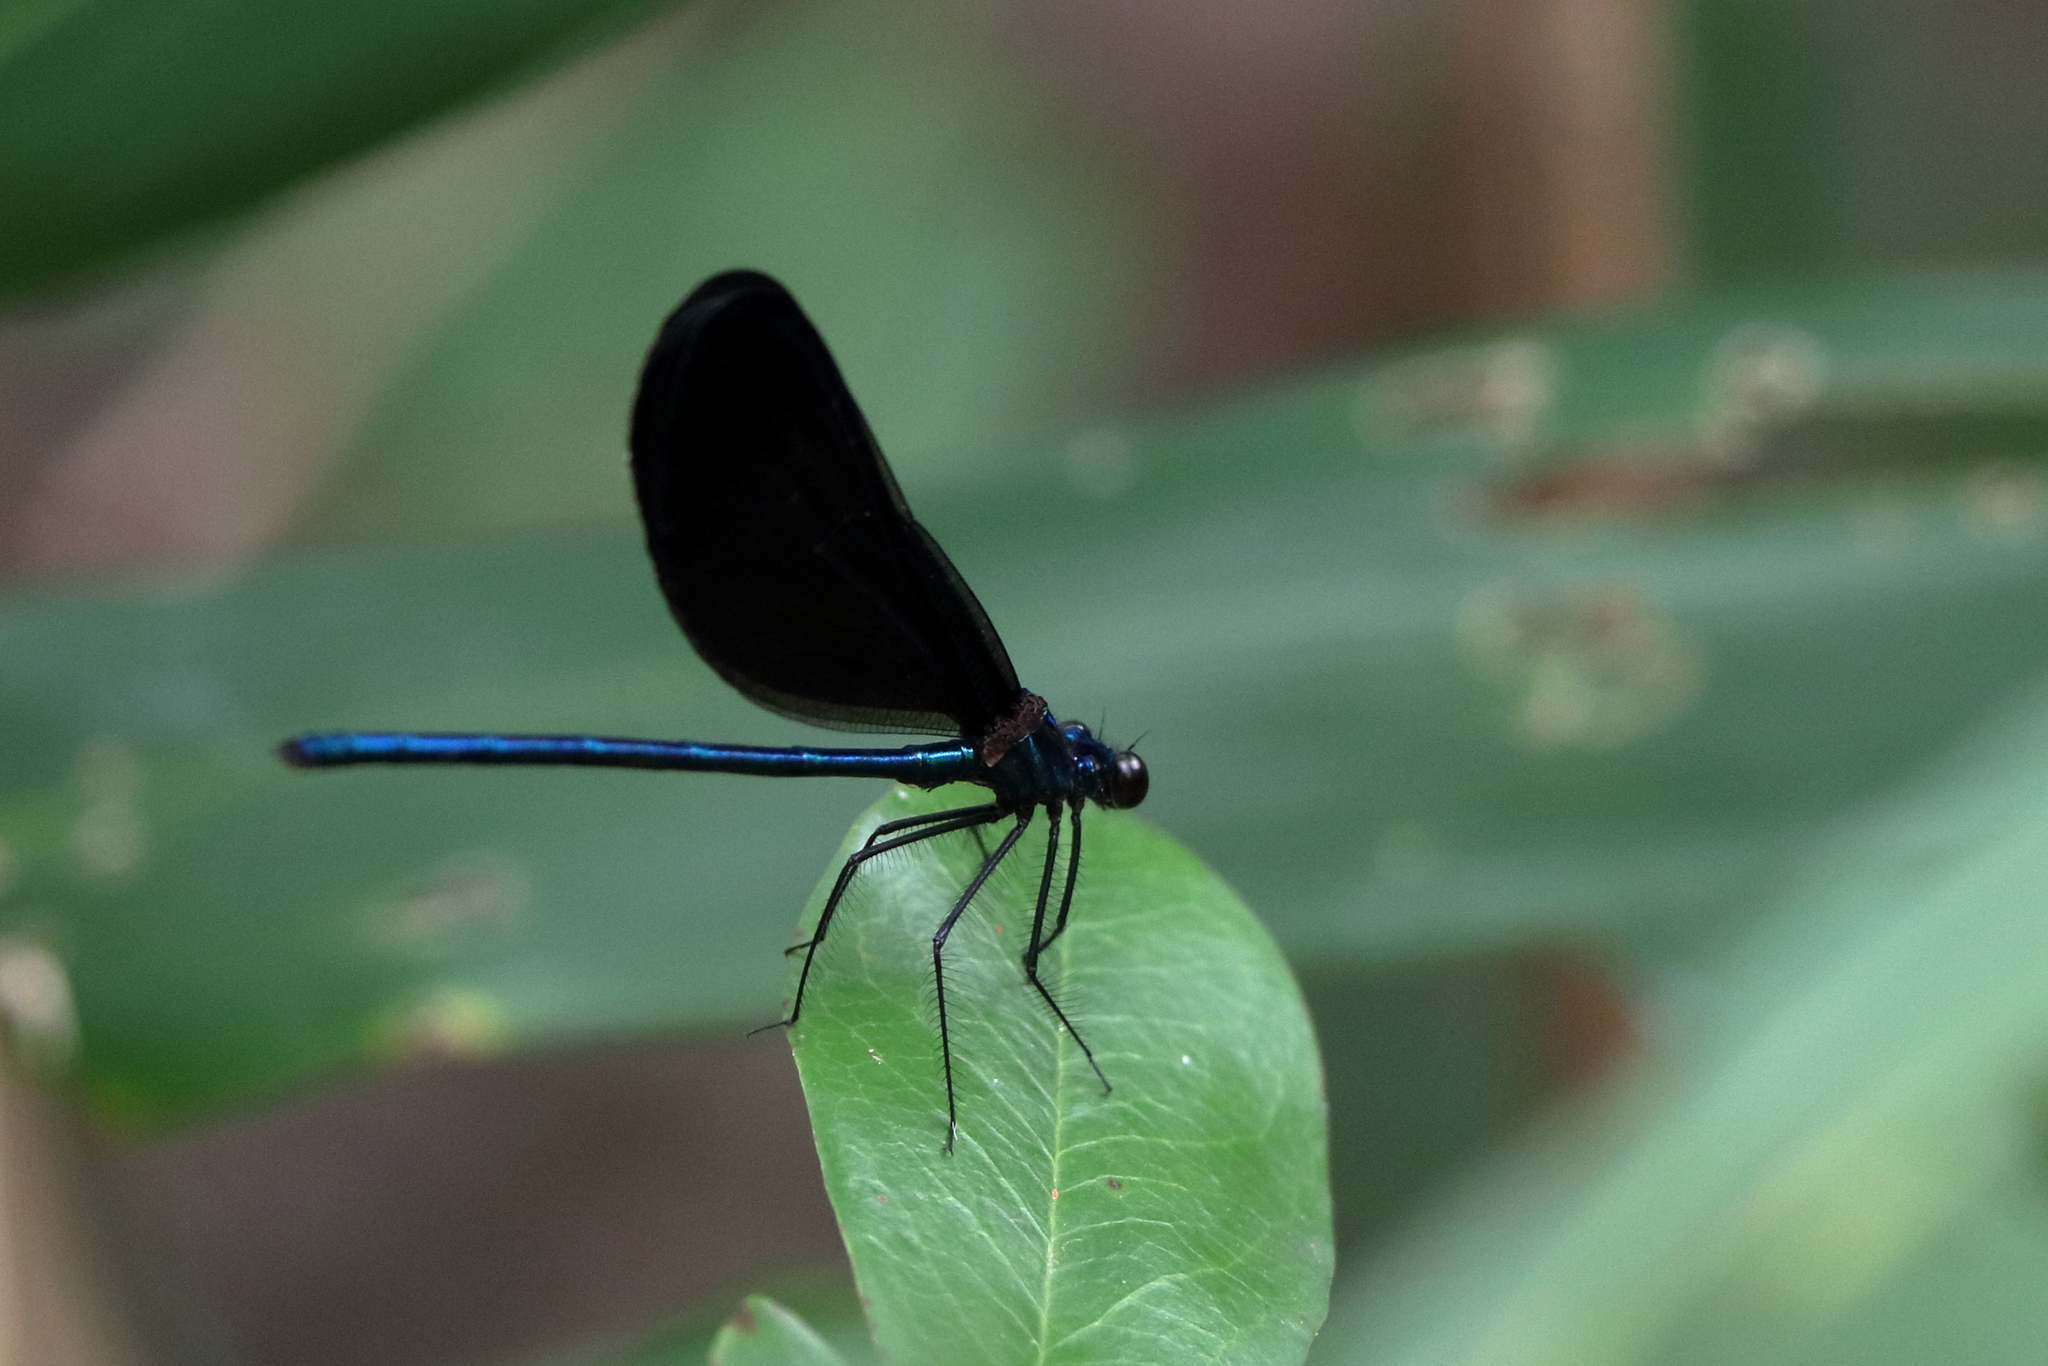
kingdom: Animalia
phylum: Arthropoda
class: Insecta
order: Odonata
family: Calopterygidae
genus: Calopteryx
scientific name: Calopteryx maculata
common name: Ebony jewelwing
